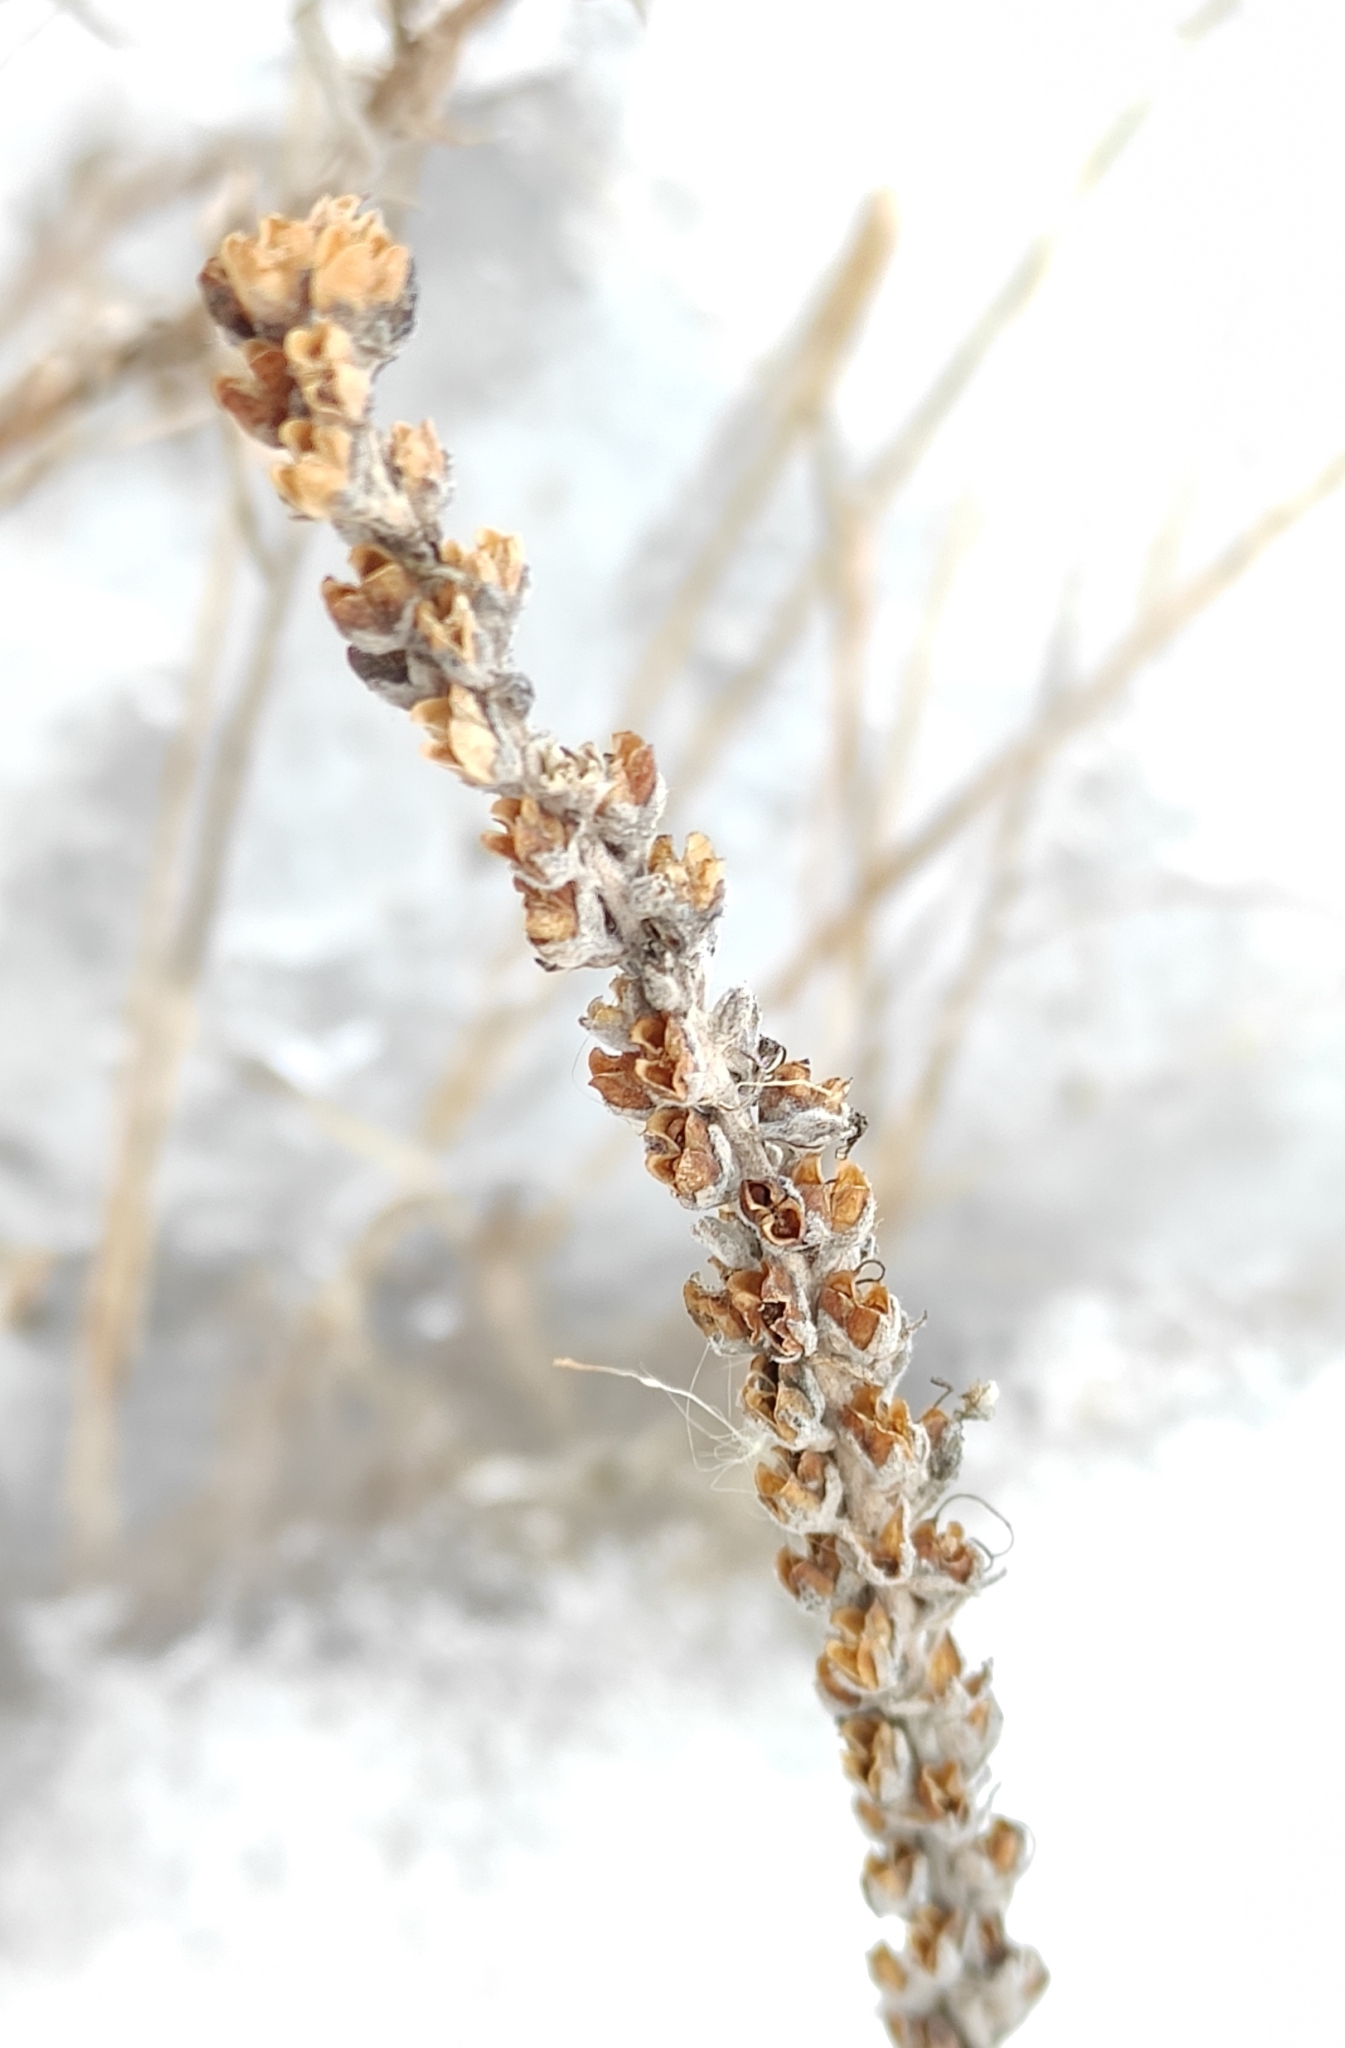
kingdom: Plantae
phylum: Tracheophyta
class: Magnoliopsida
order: Lamiales
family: Plantaginaceae
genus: Veronica
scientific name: Veronica longifolia
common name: Garden speedwell
